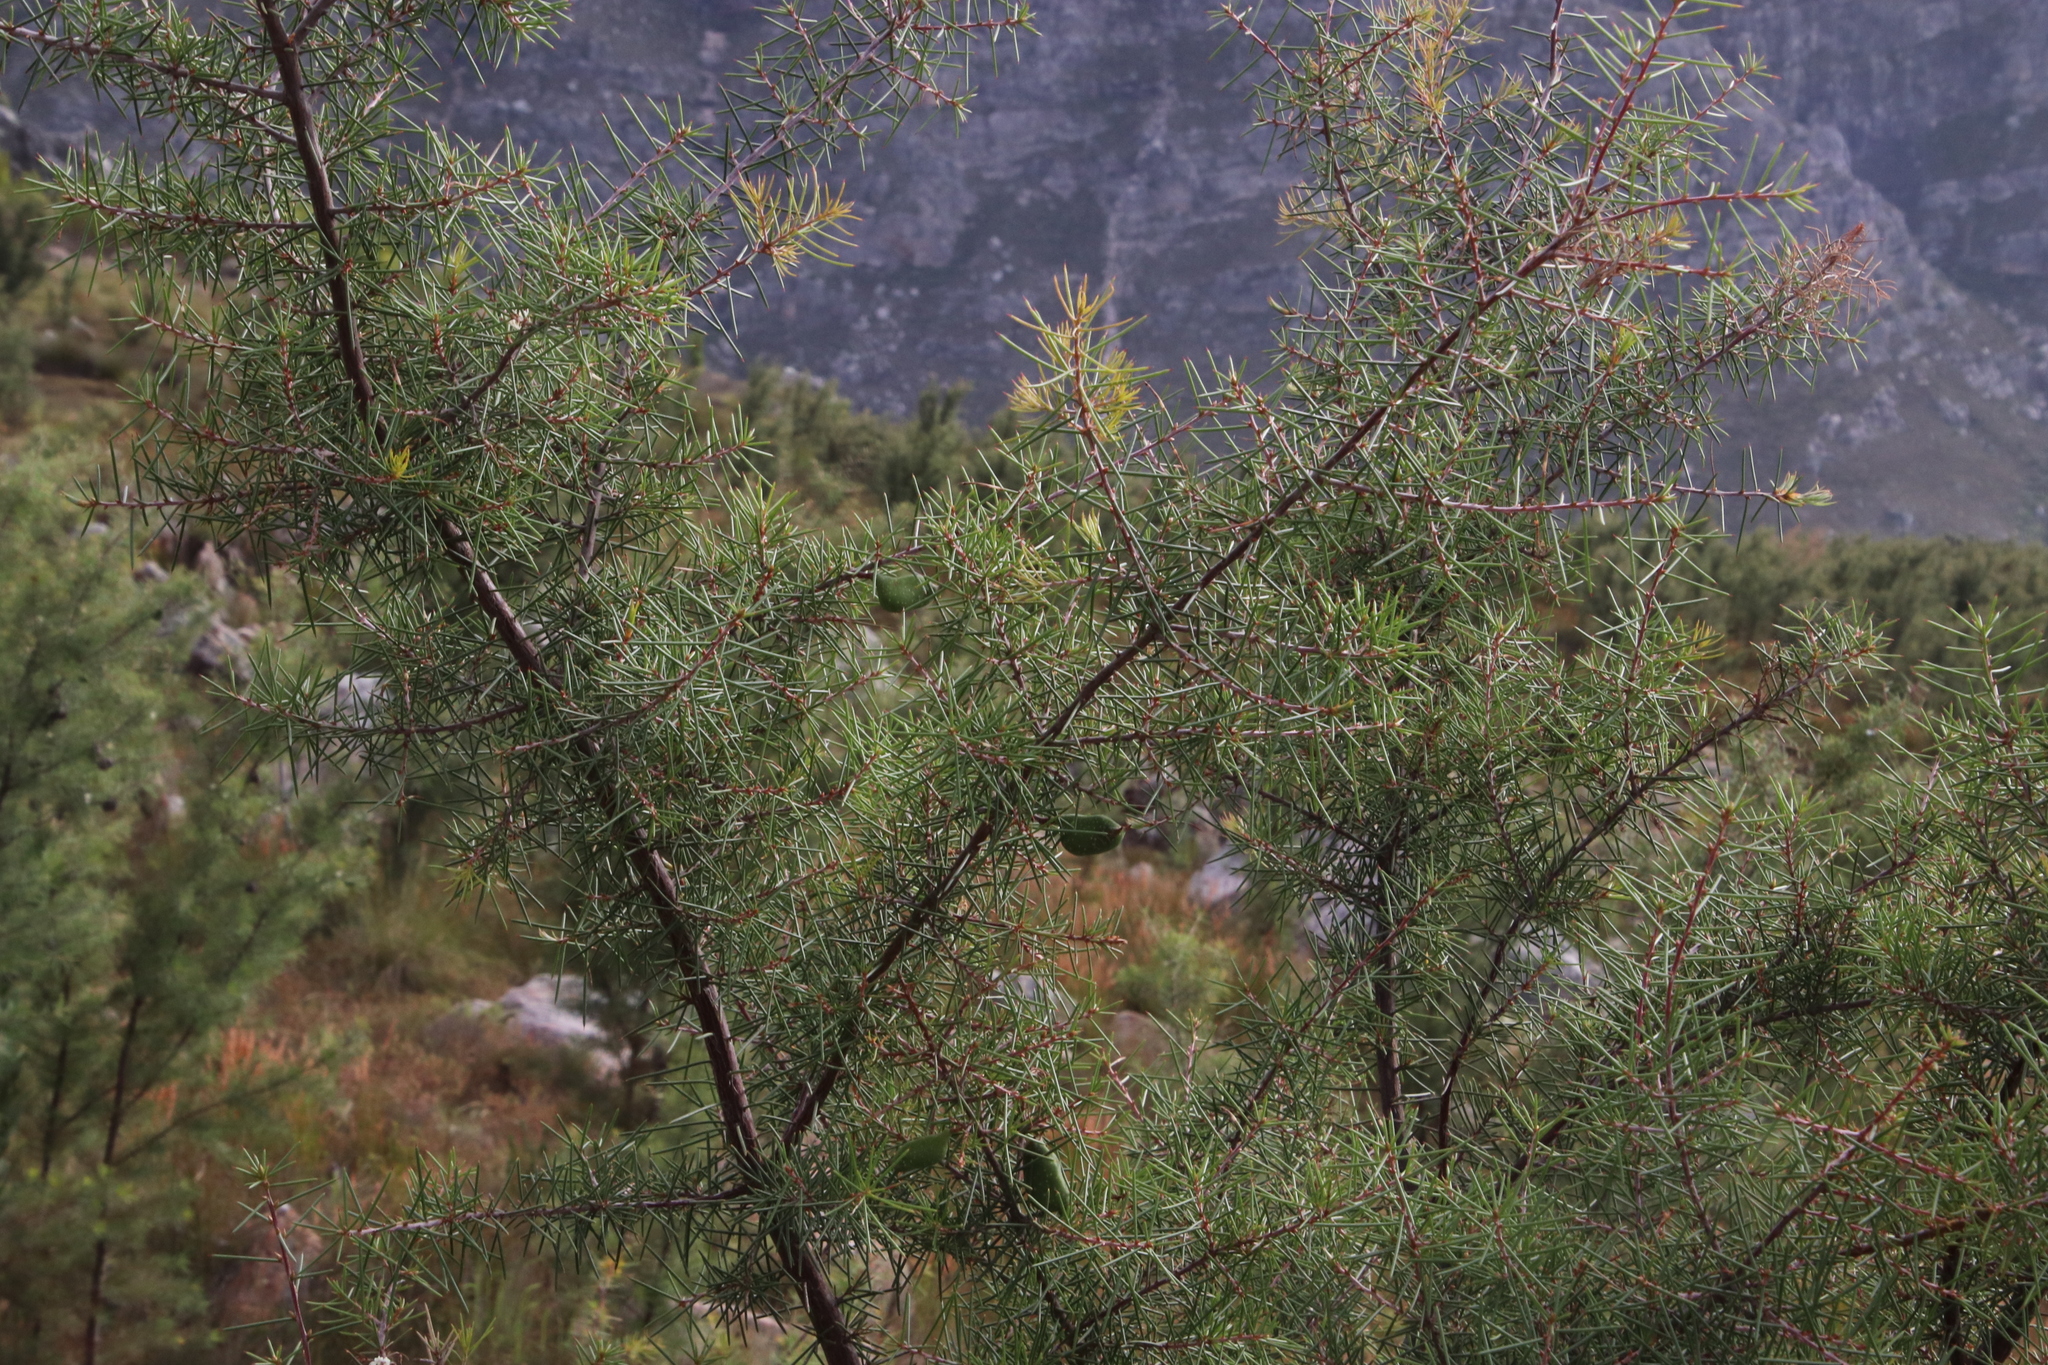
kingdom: Plantae
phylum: Tracheophyta
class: Magnoliopsida
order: Proteales
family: Proteaceae
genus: Hakea
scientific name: Hakea sericea
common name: Needle bush
